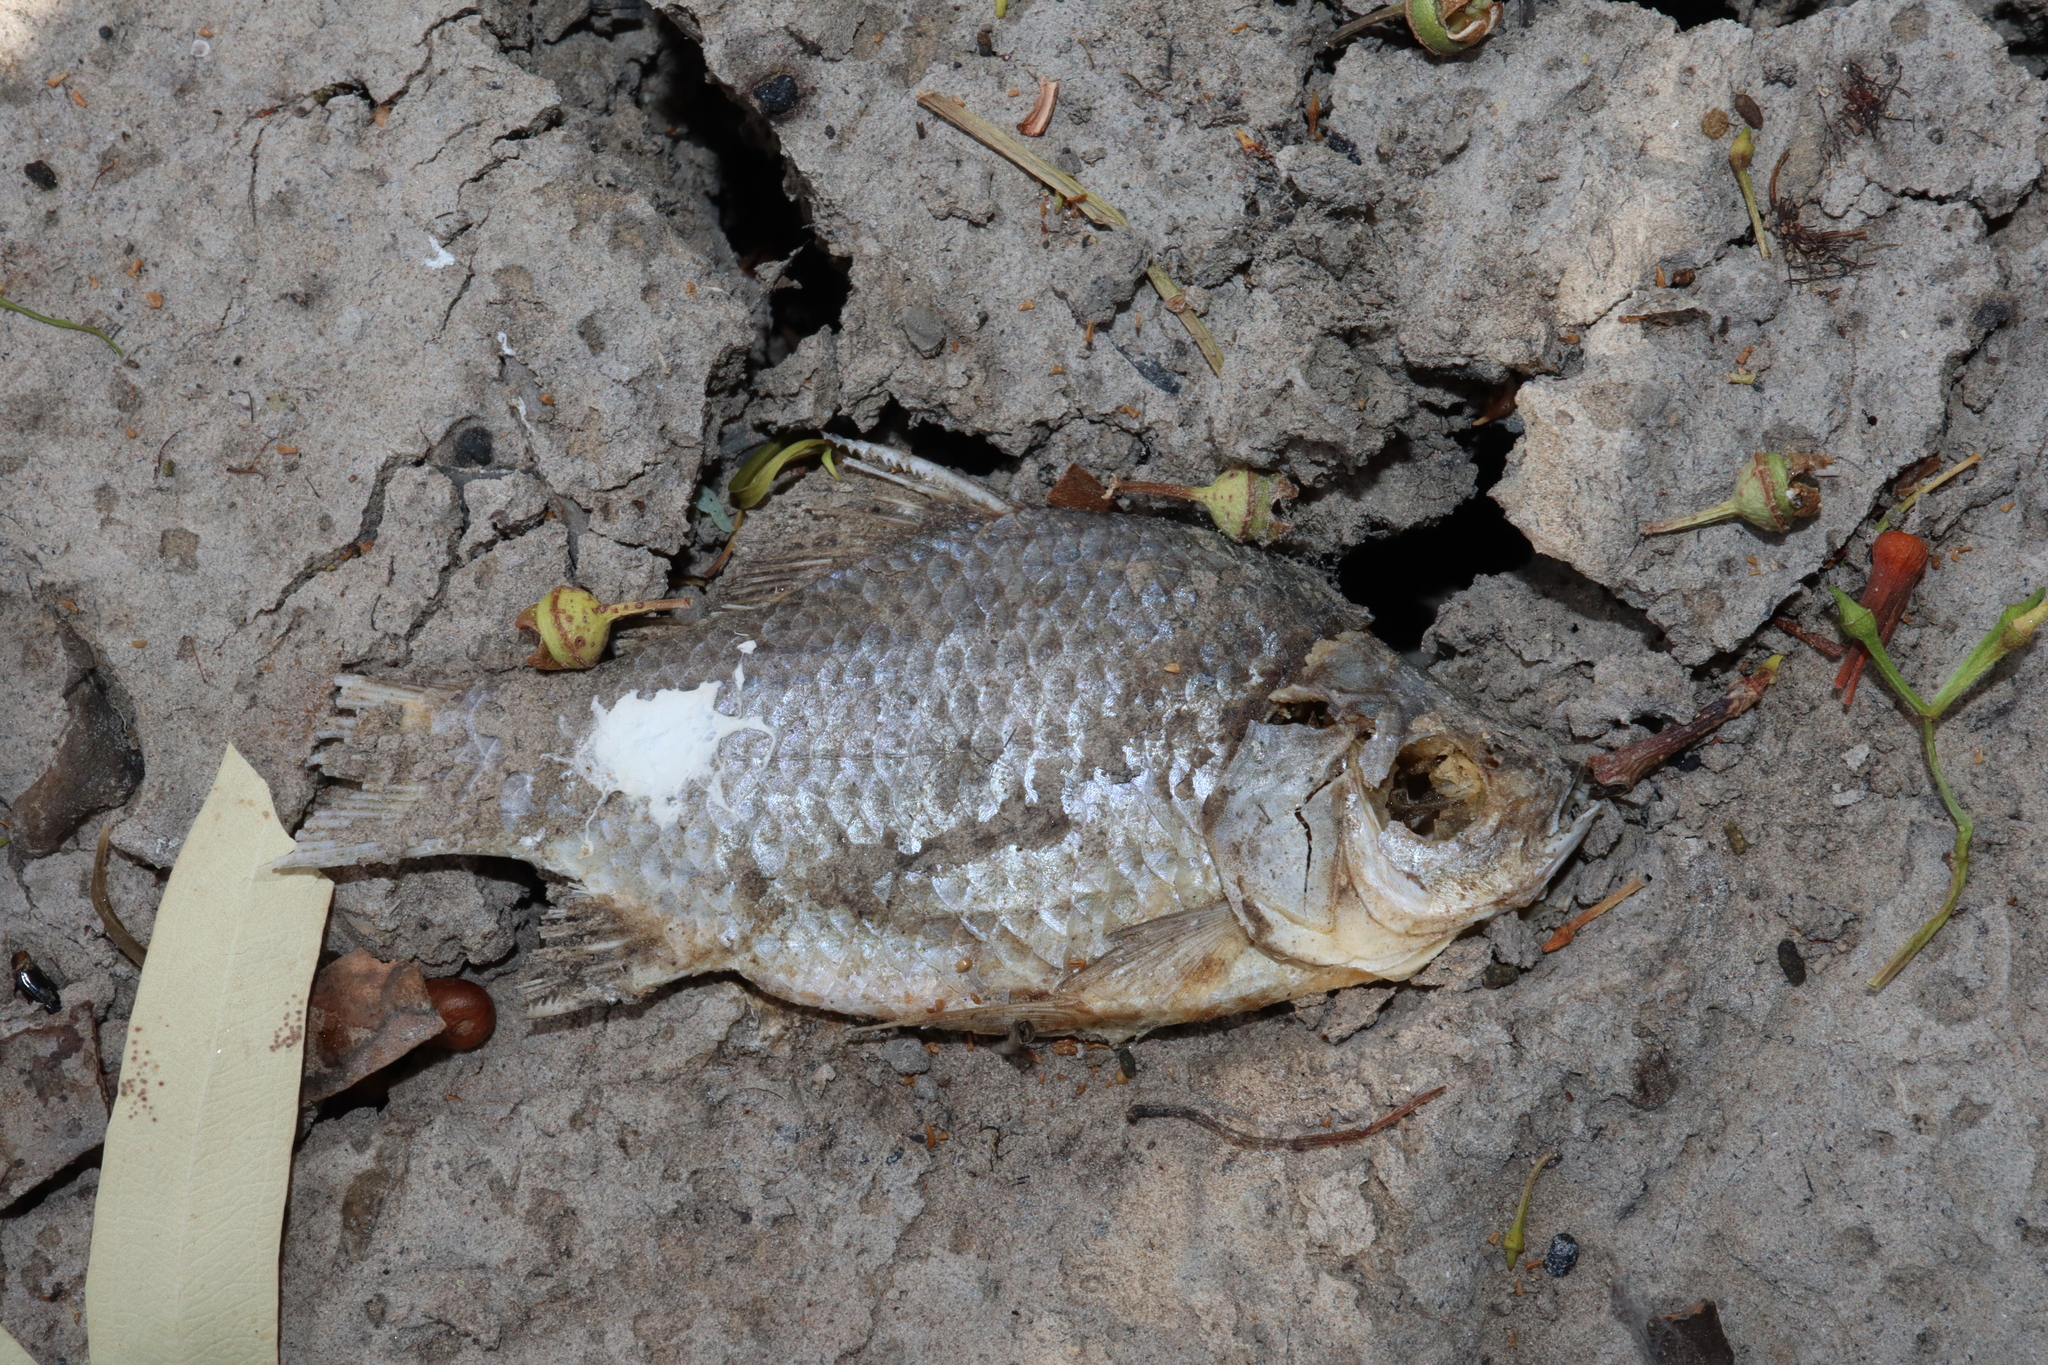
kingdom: Animalia
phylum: Chordata
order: Cypriniformes
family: Cyprinidae
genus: Carassius
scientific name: Carassius auratus
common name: Goldfish
